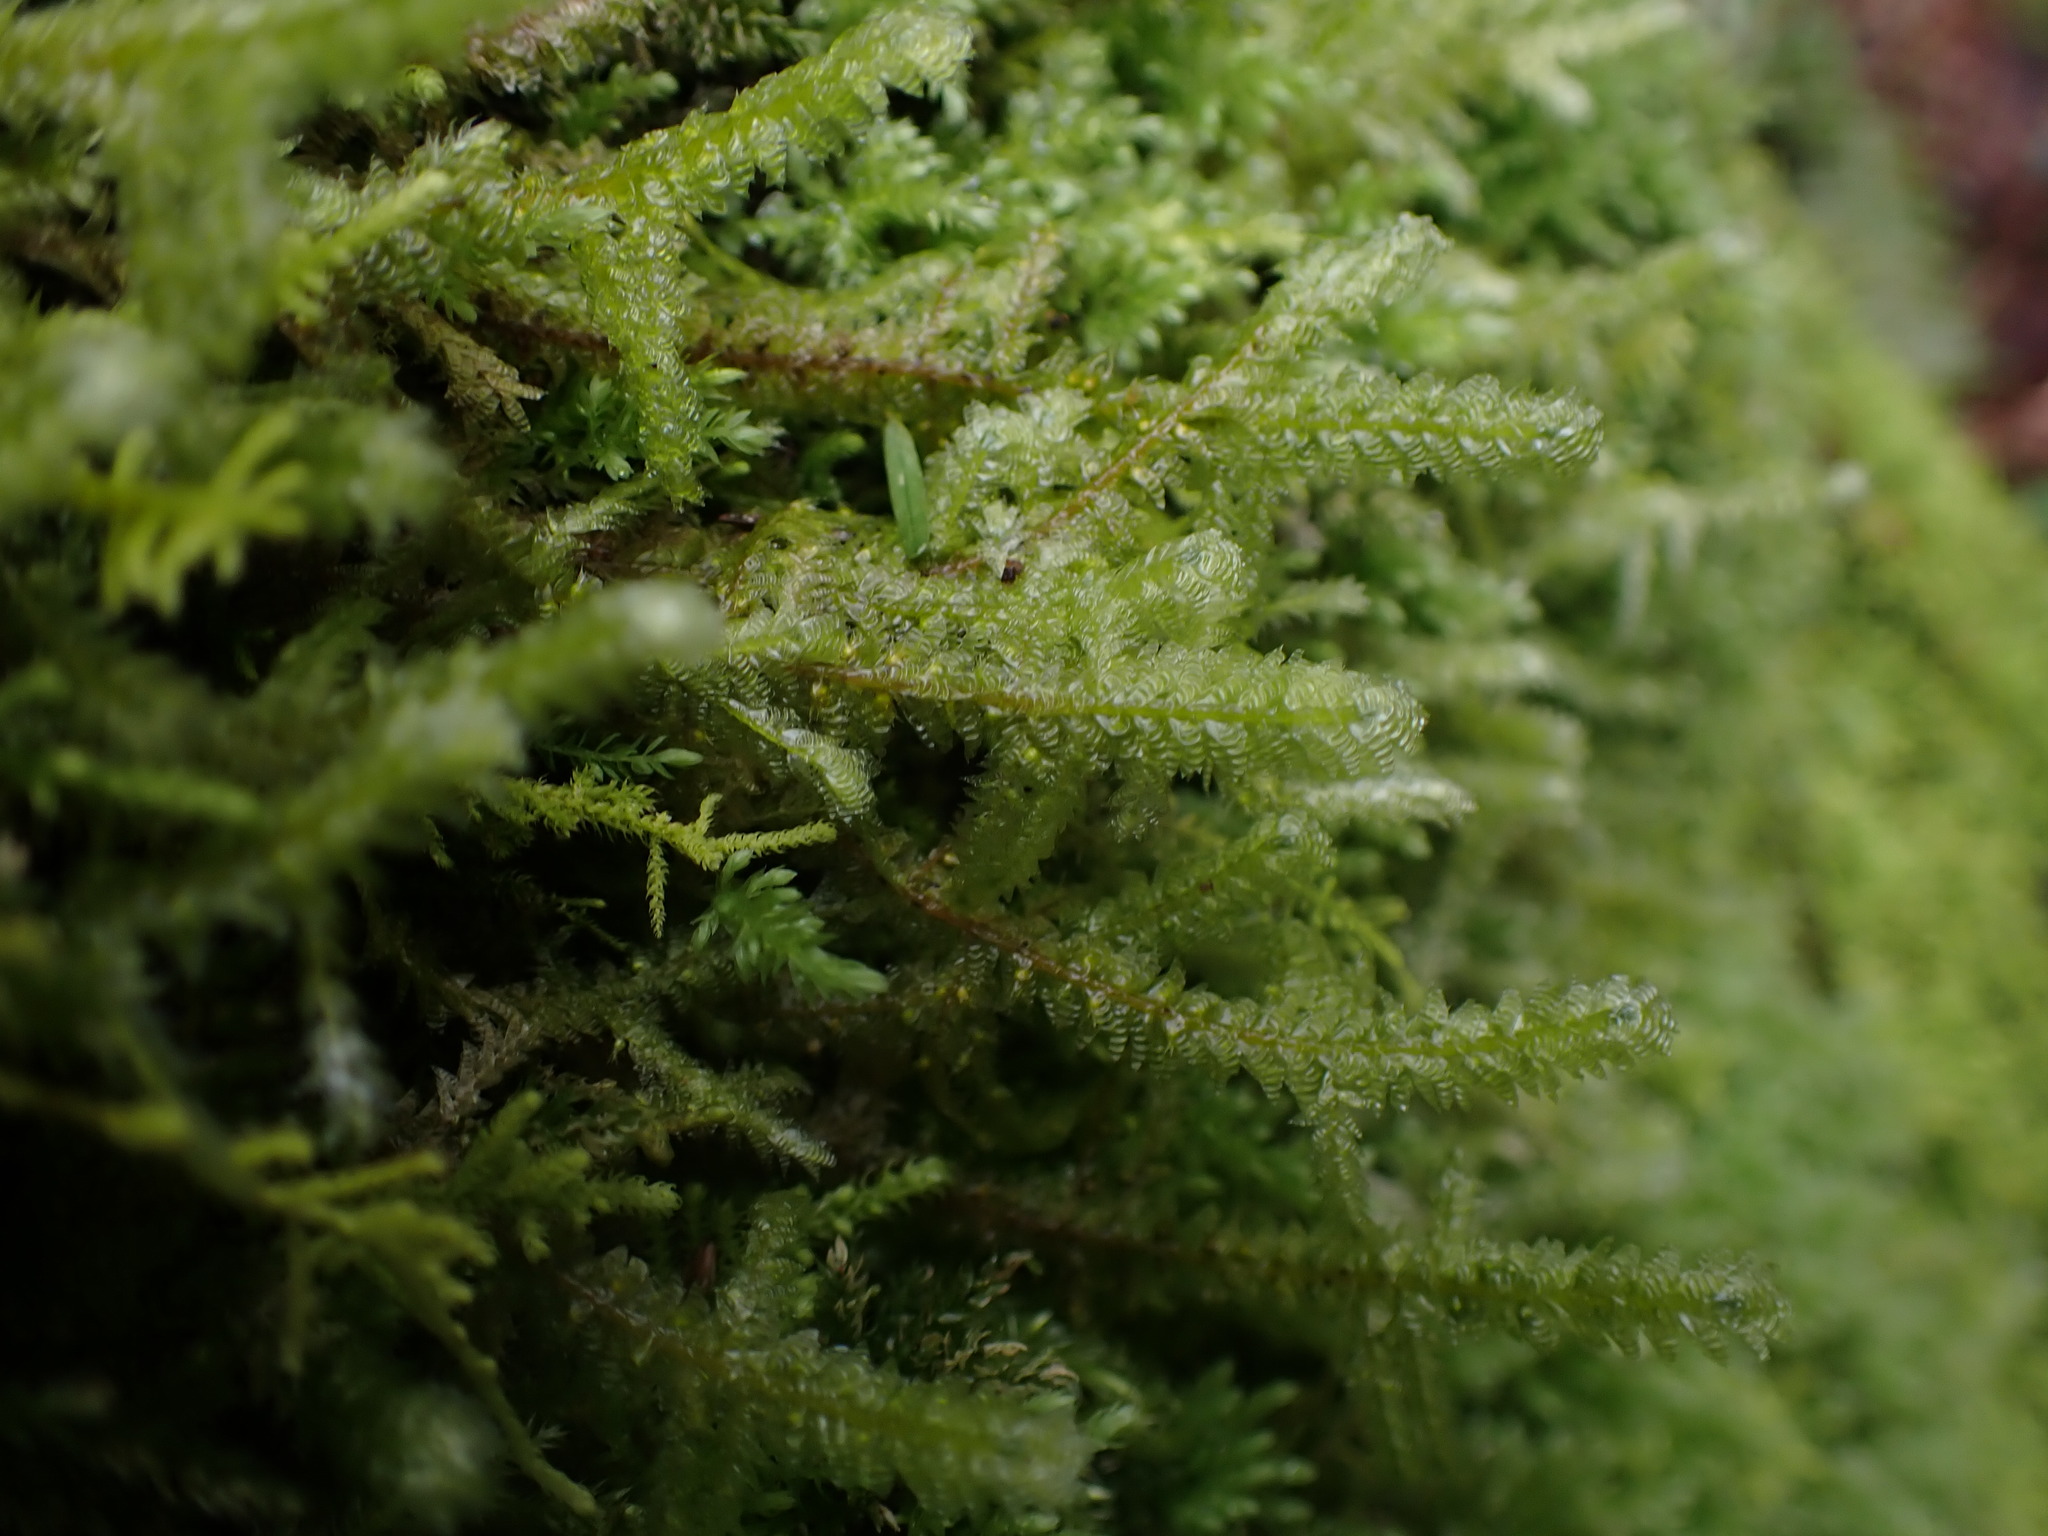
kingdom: Plantae
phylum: Bryophyta
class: Bryopsida
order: Hypnales
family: Neckeraceae
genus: Neckera
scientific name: Neckera douglasii
